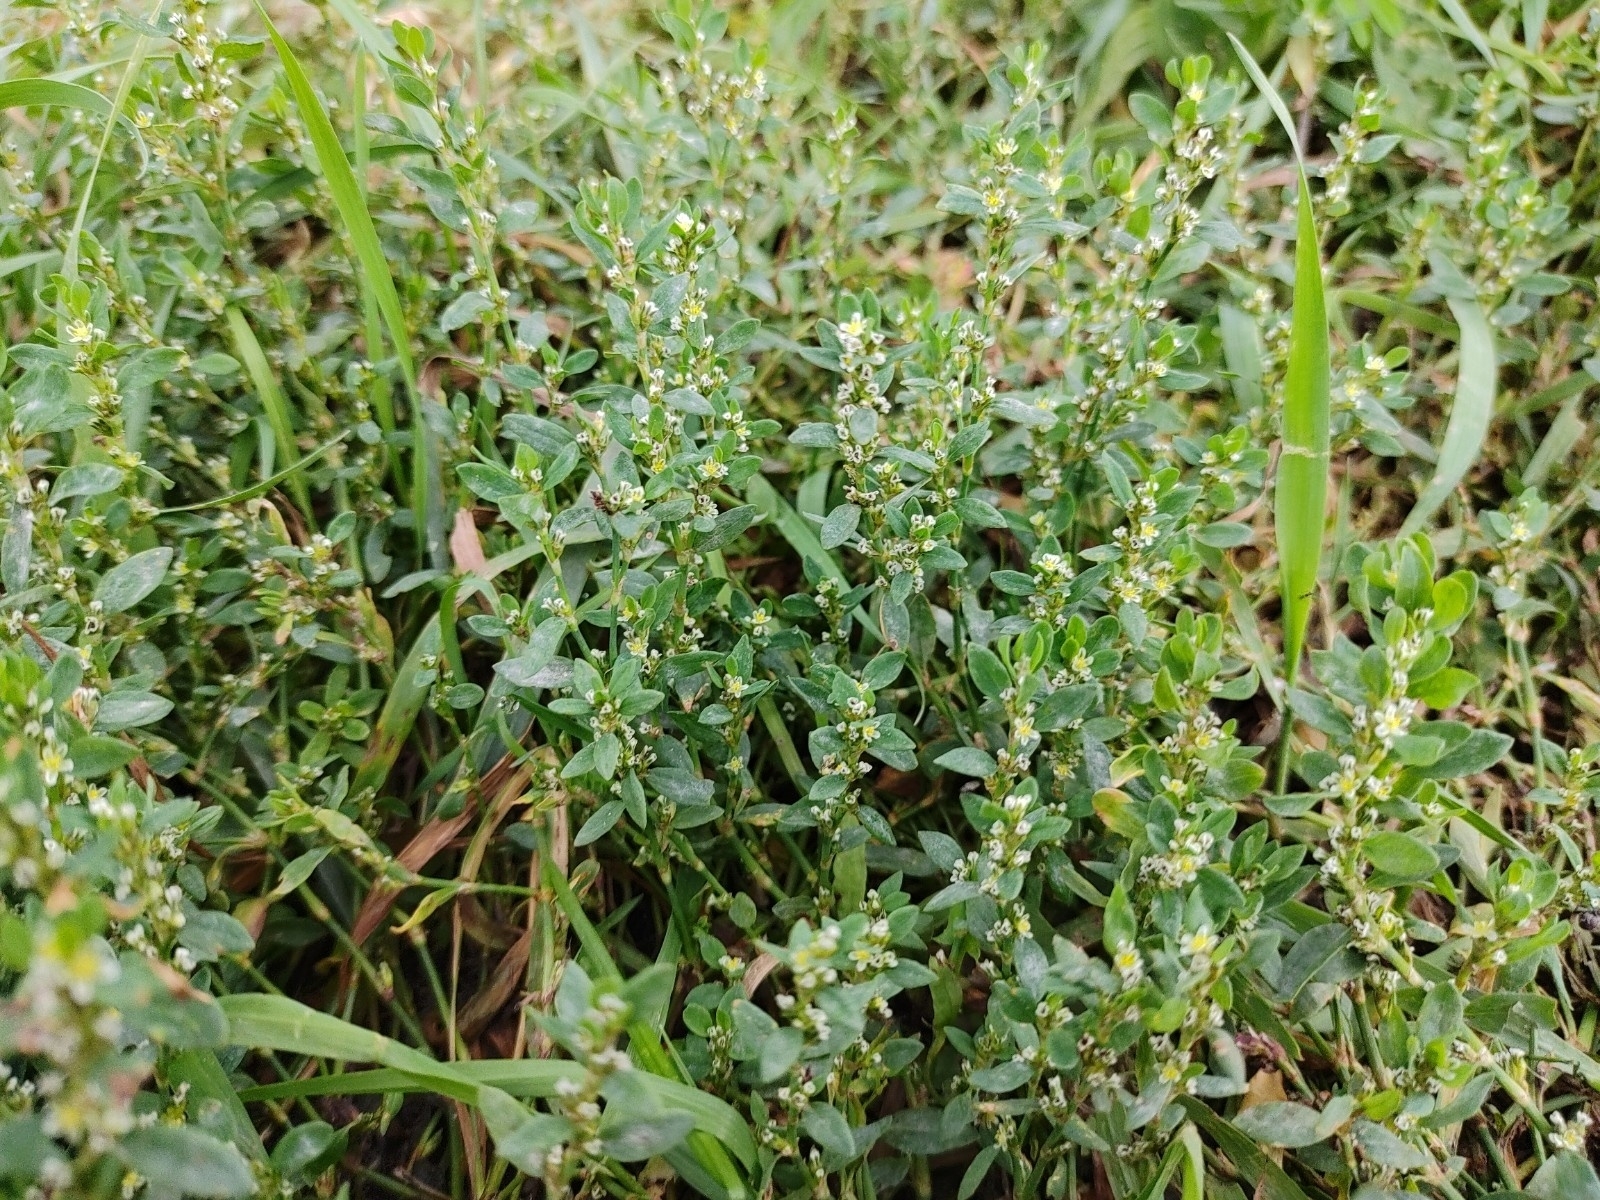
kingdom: Plantae
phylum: Tracheophyta
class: Magnoliopsida
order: Caryophyllales
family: Polygonaceae
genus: Polygonum
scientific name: Polygonum aviculare
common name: Prostrate knotweed
